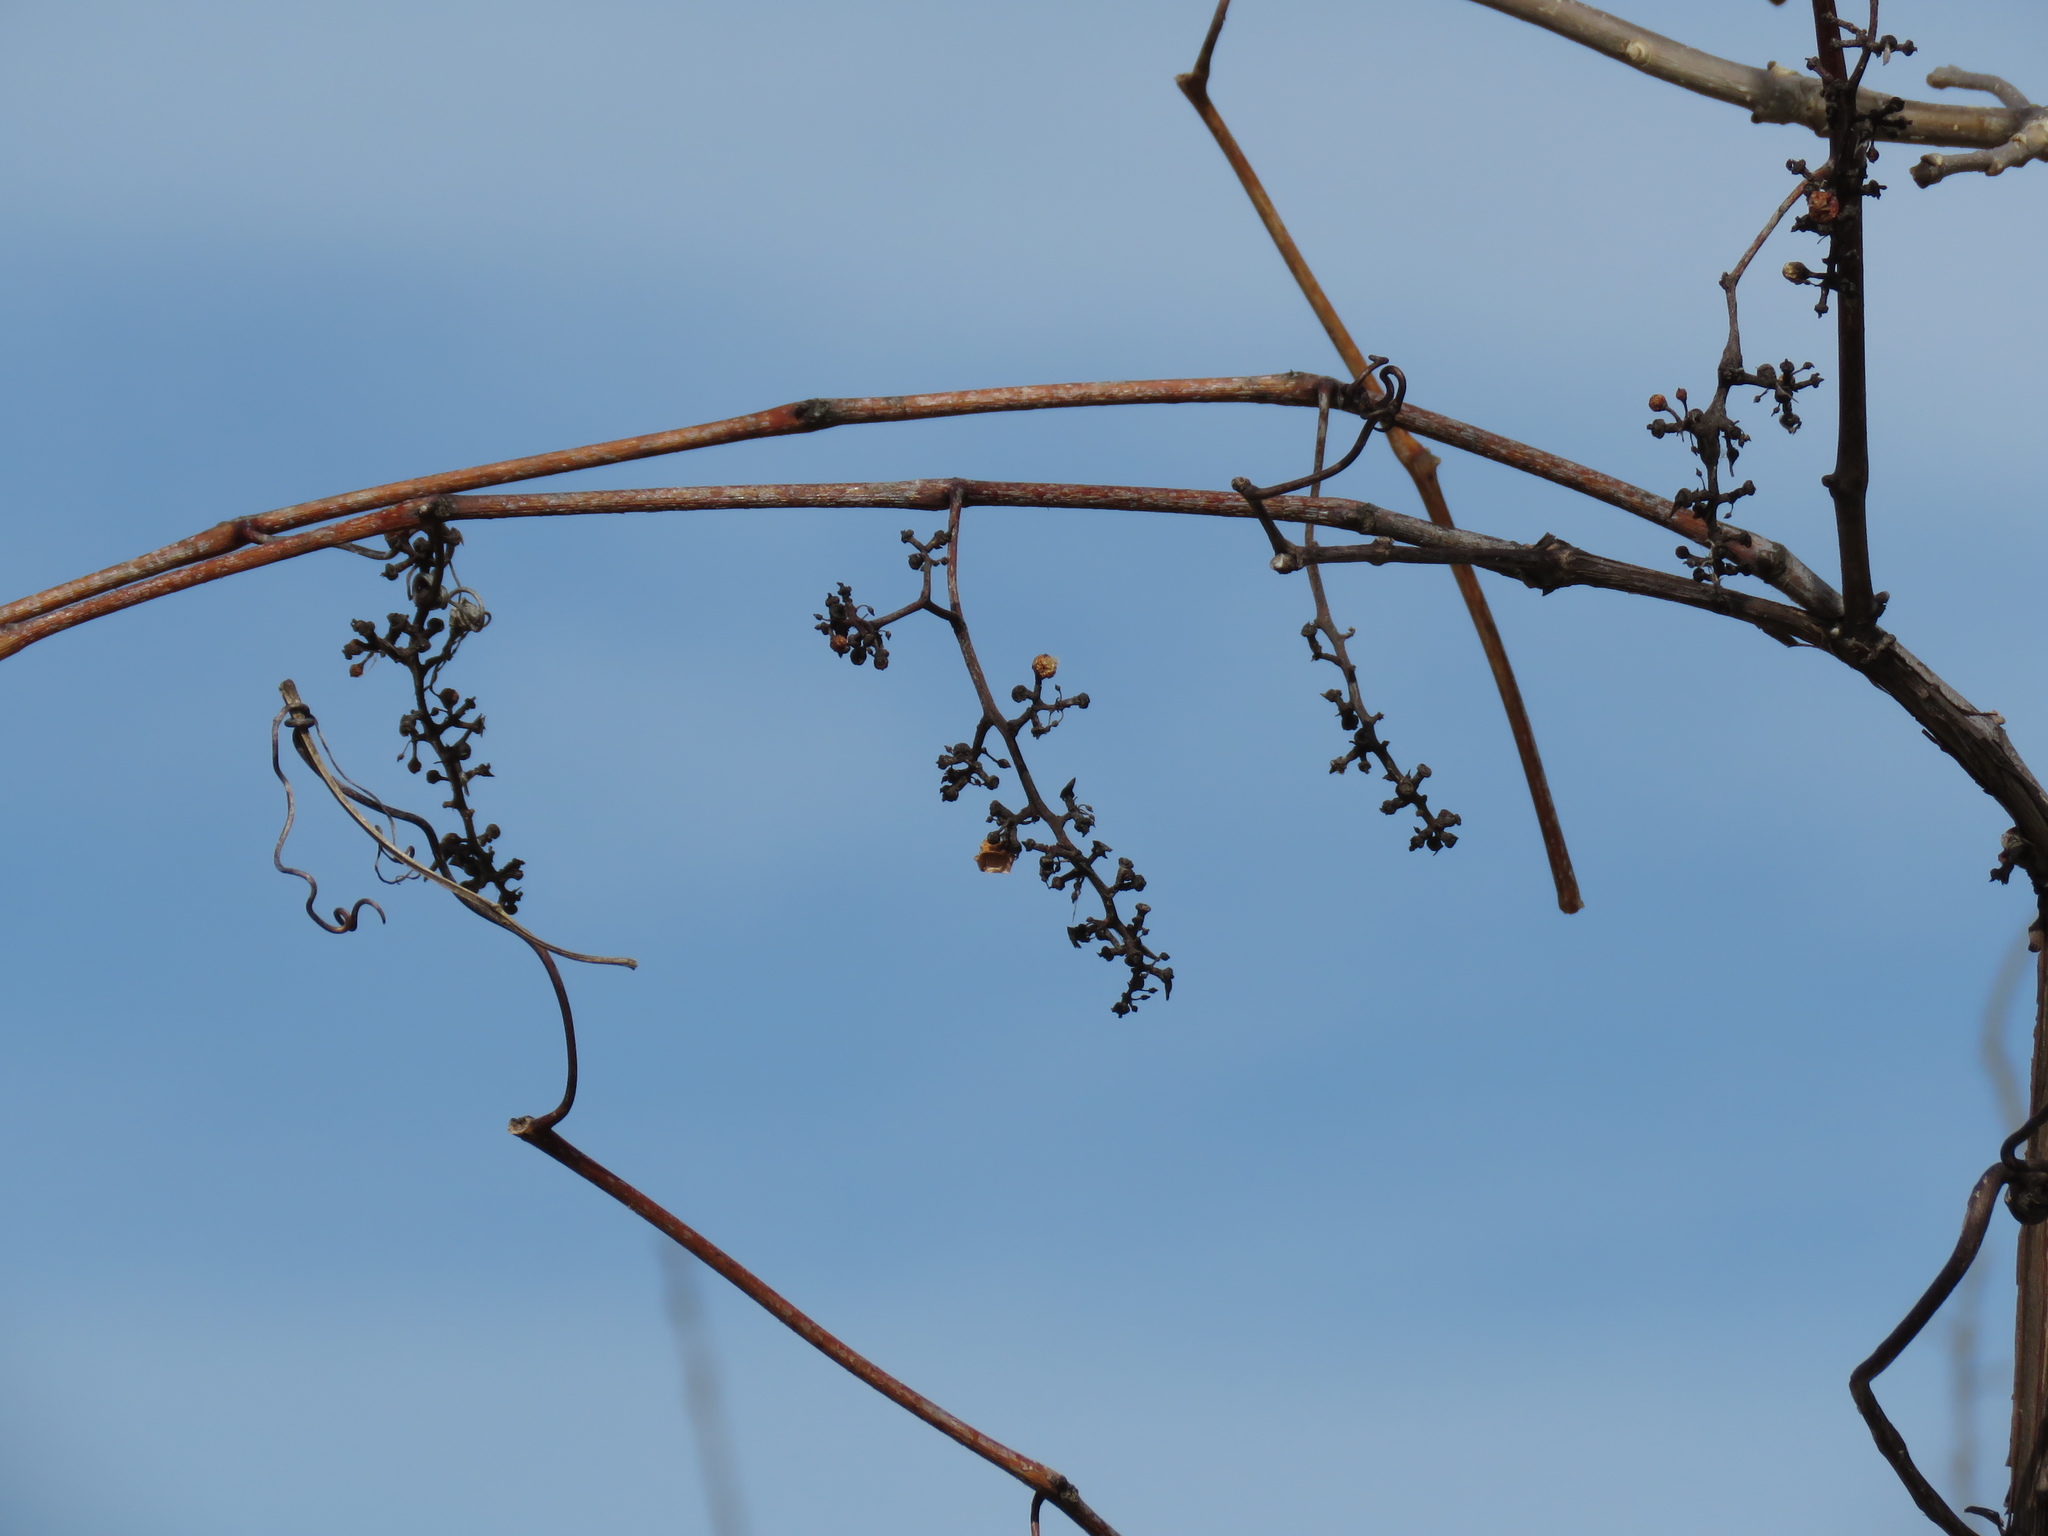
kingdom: Plantae
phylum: Tracheophyta
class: Magnoliopsida
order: Vitales
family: Vitaceae
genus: Vitis
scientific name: Vitis riparia
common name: Frost grape
